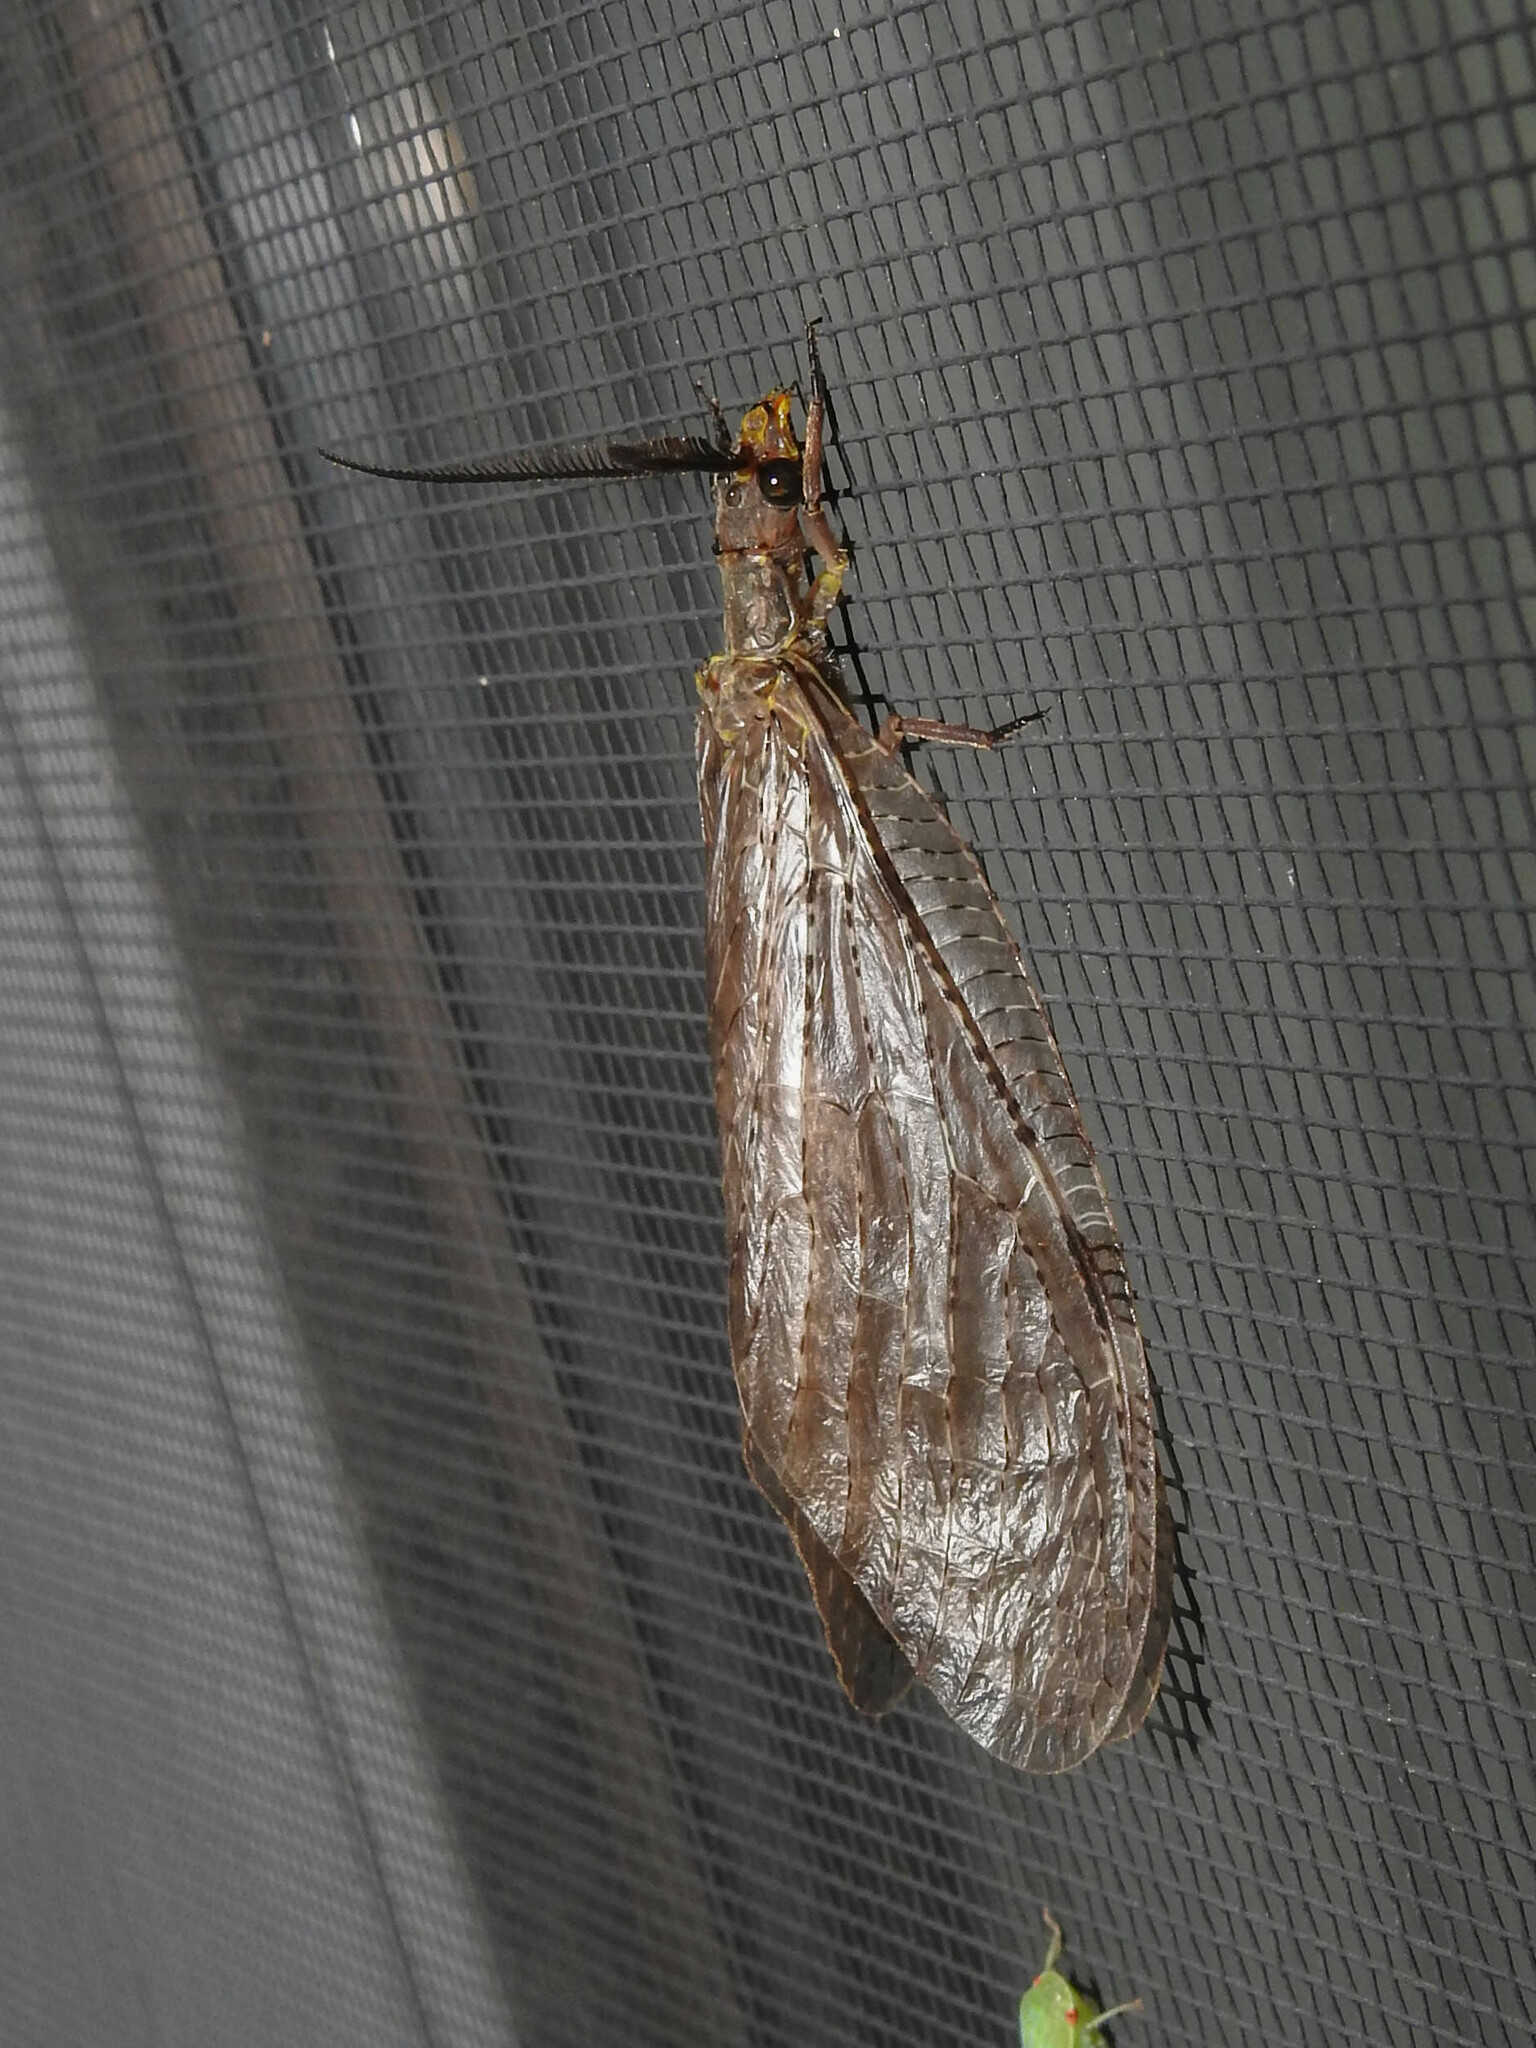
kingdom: Animalia
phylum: Arthropoda
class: Insecta
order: Megaloptera
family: Corydalidae
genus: Chauliodes
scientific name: Chauliodes pectinicornis
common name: Summer fishfly
